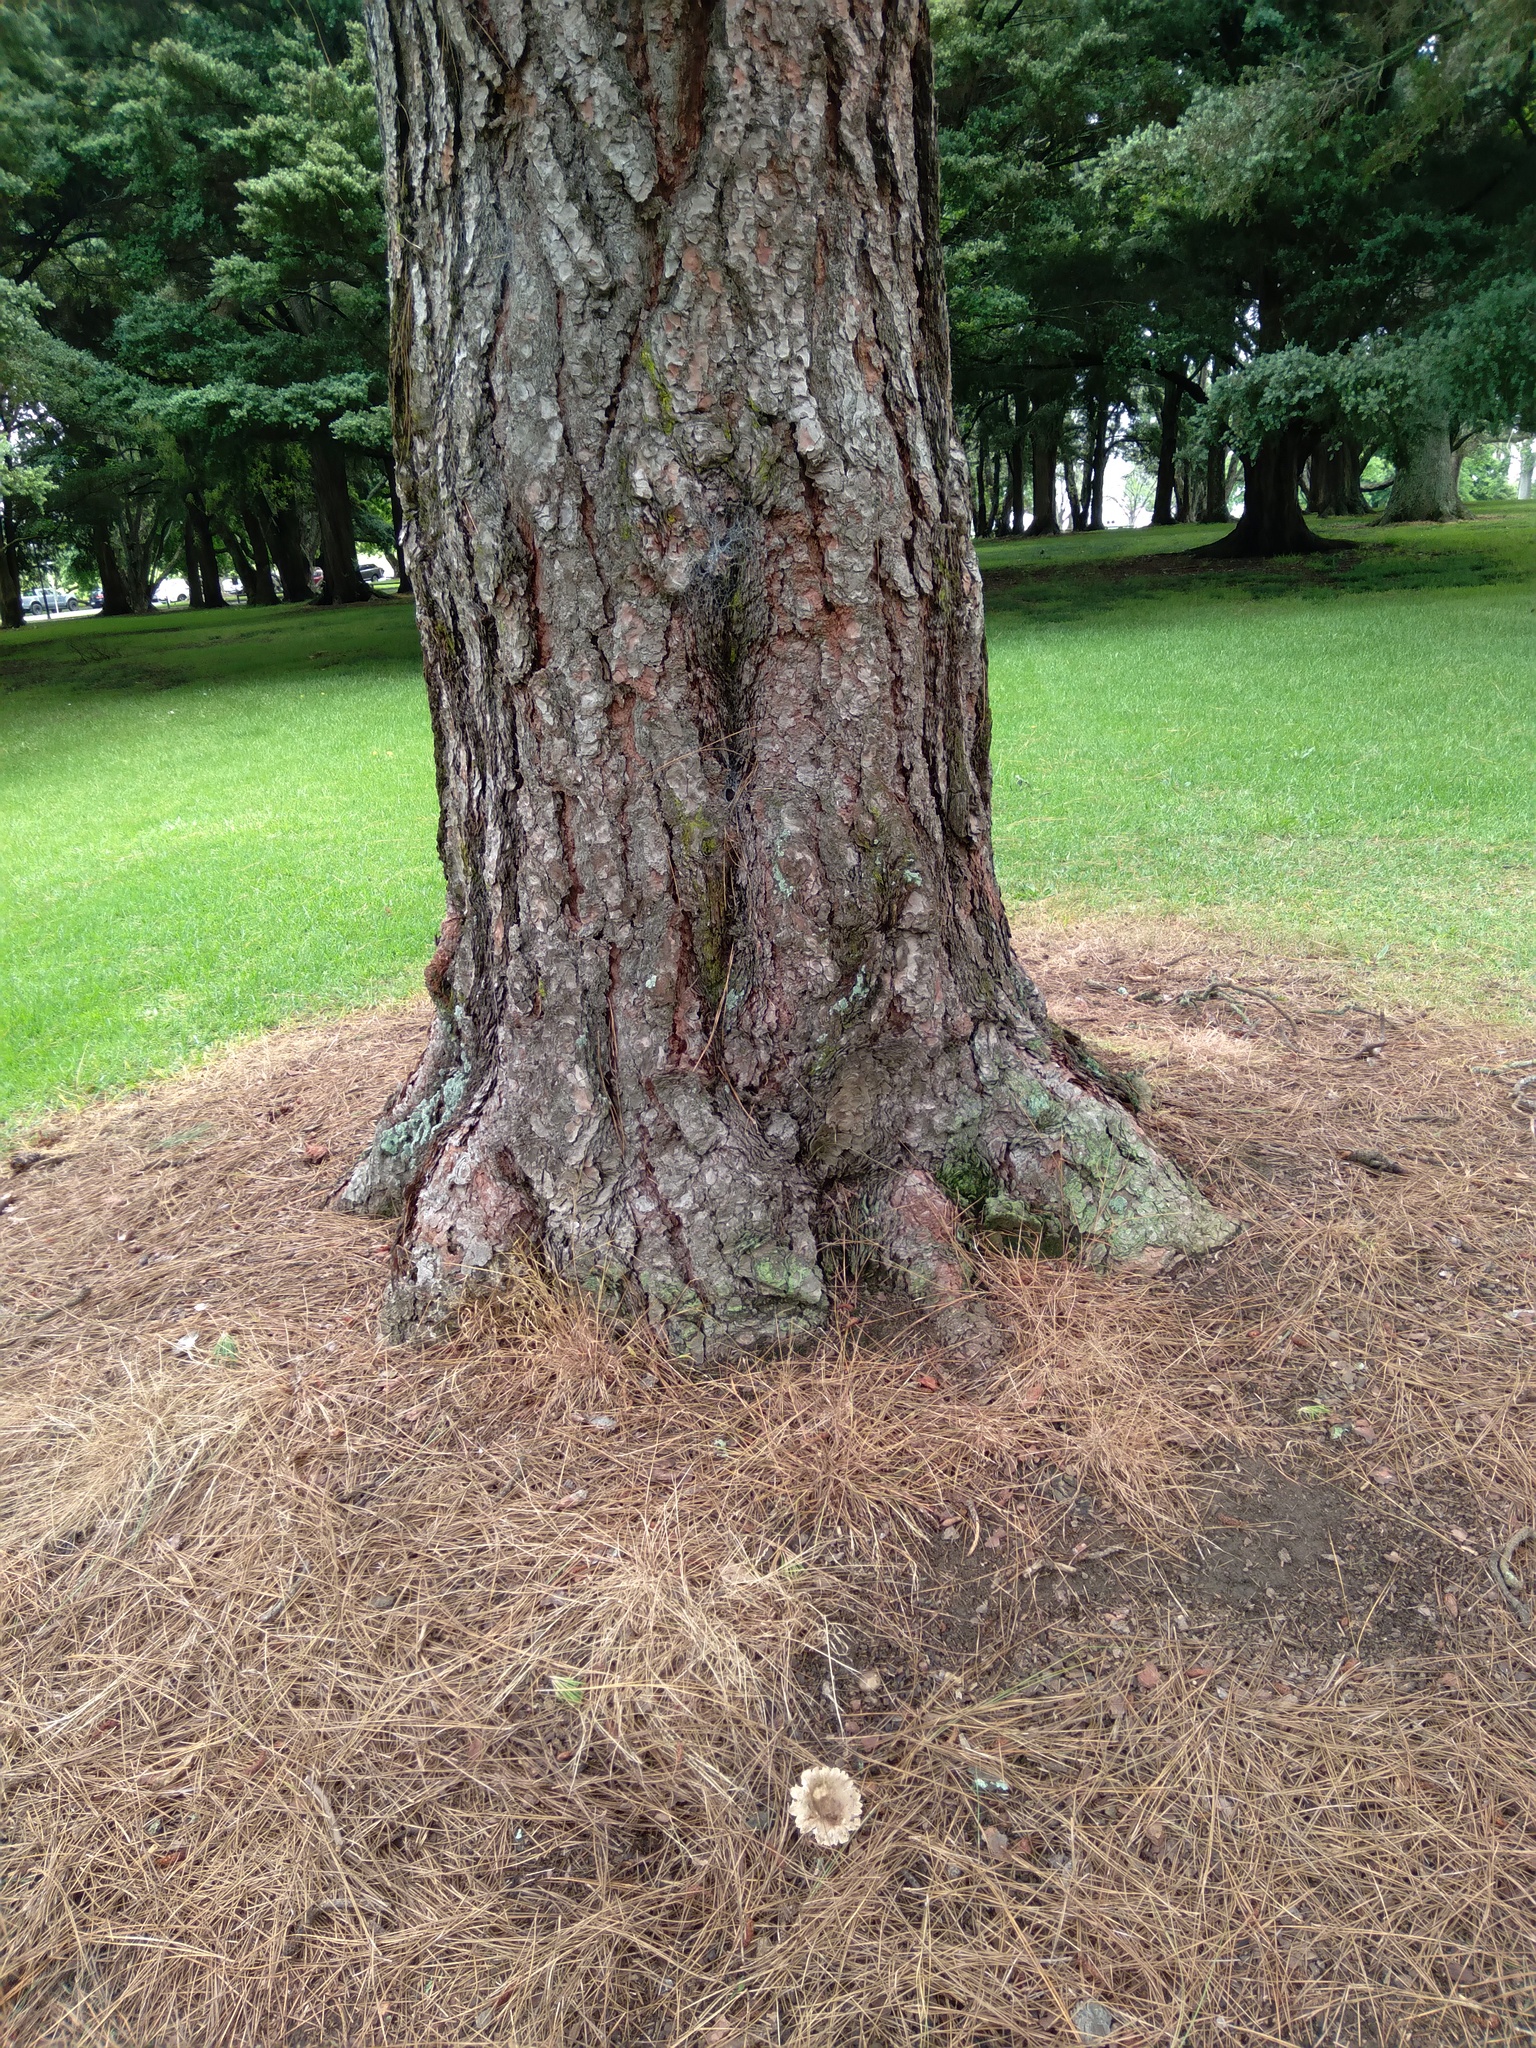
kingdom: Fungi
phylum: Basidiomycota
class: Agaricomycetes
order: Russulales
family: Russulaceae
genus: Russula
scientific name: Russula amoenolens
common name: Camembert brittlegill
